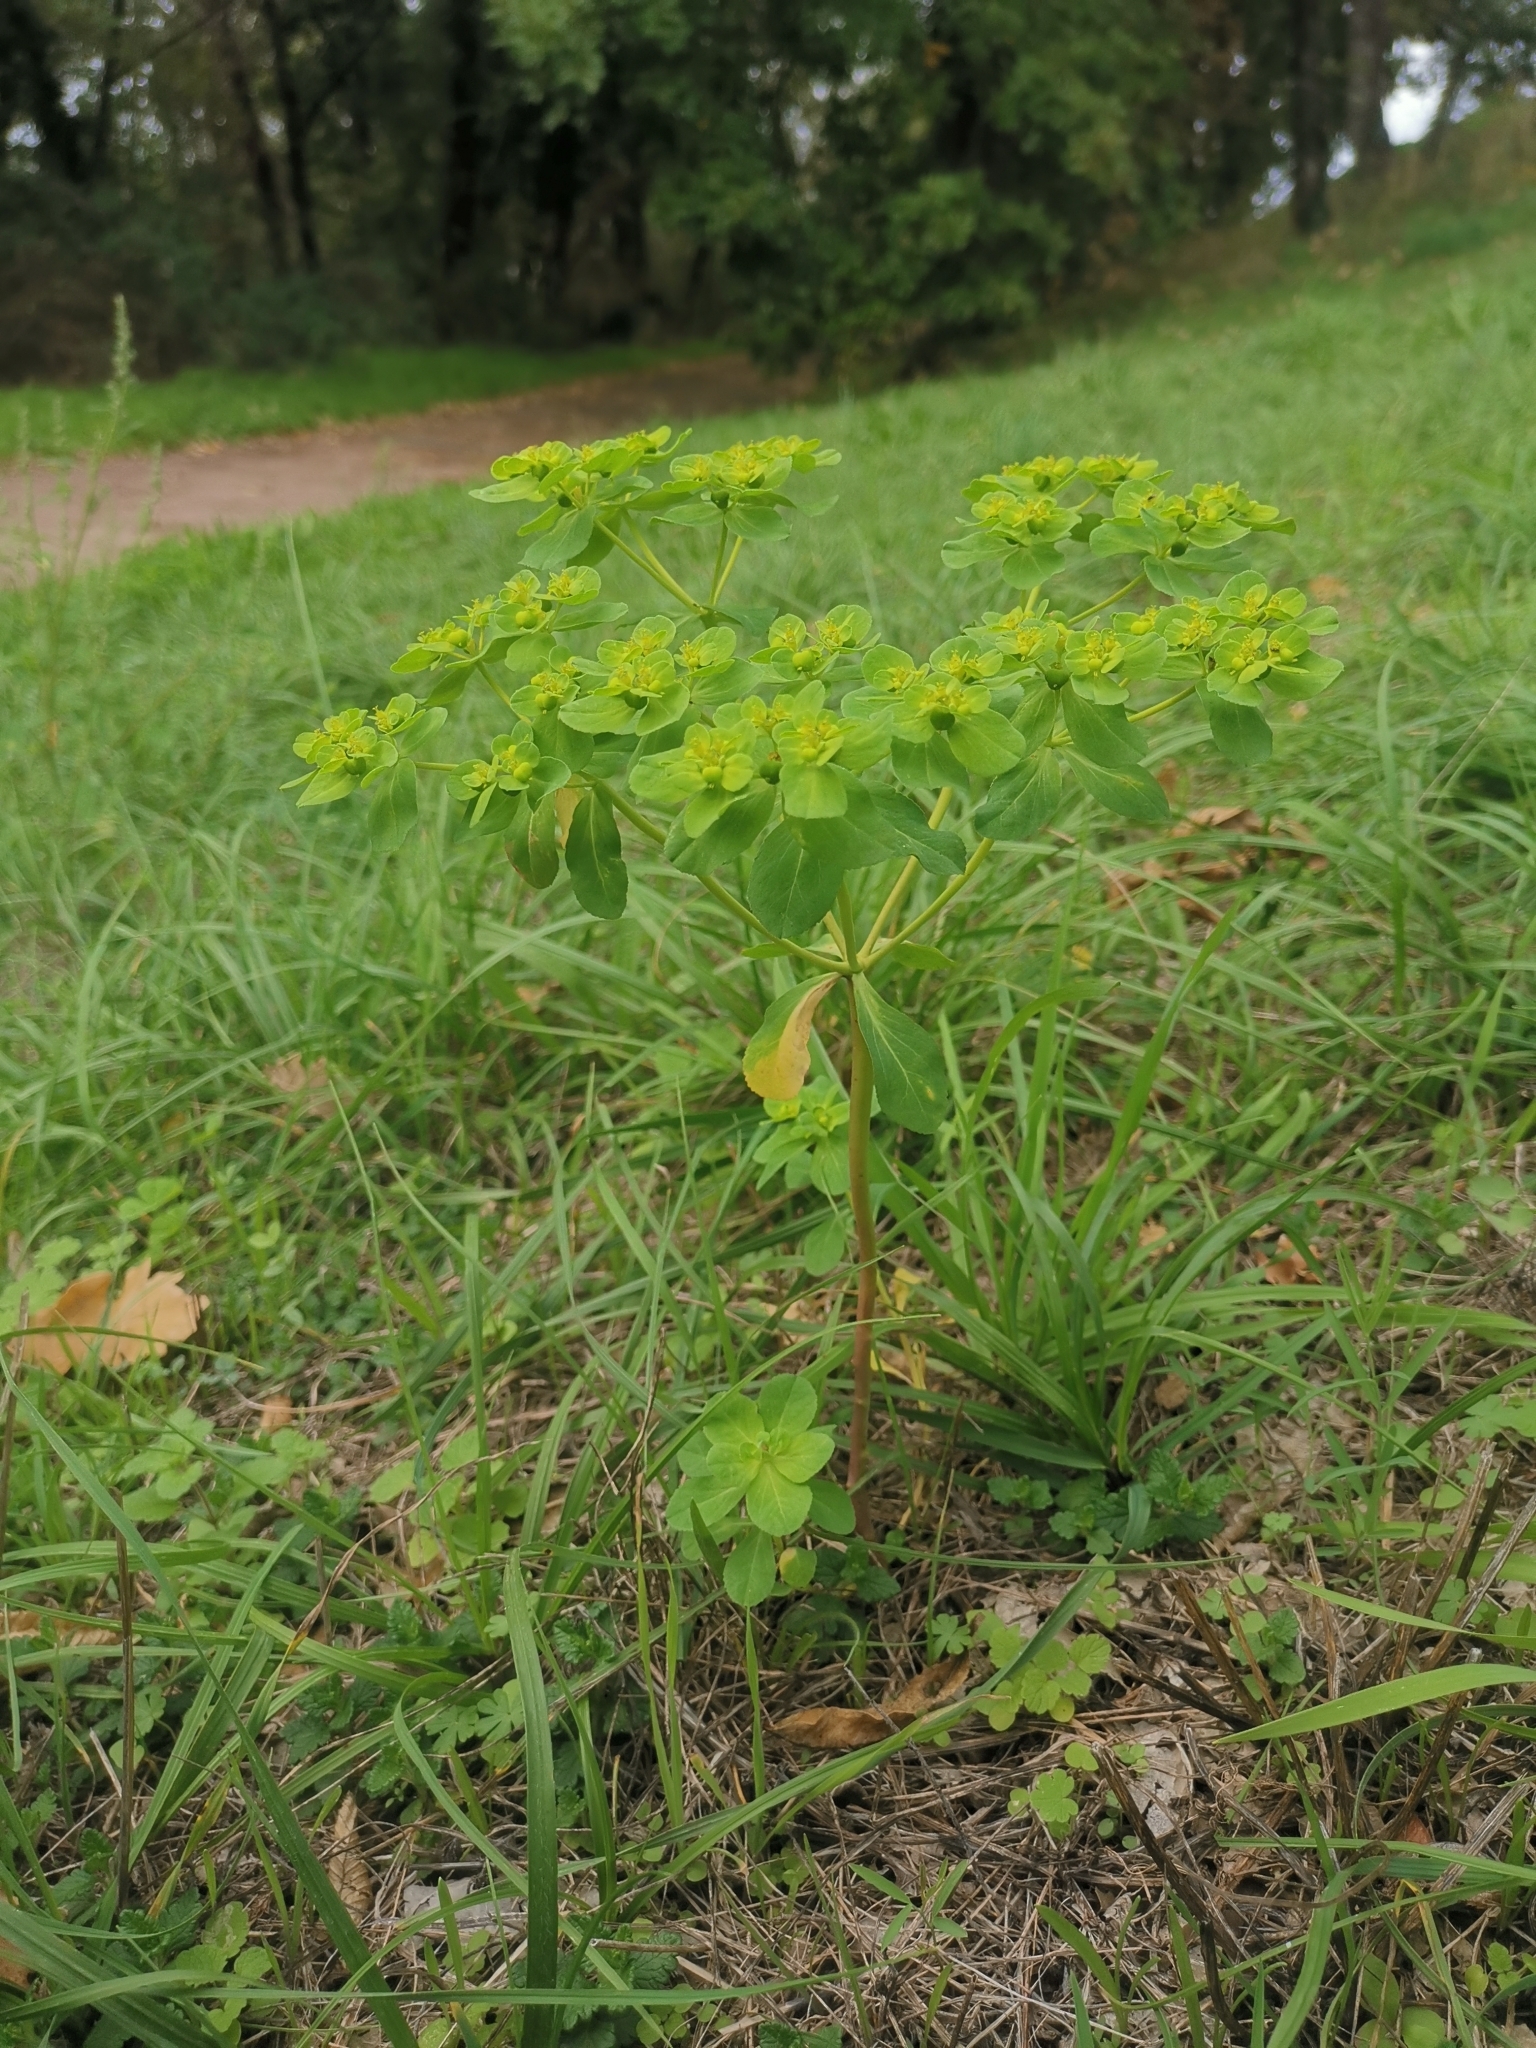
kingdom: Plantae
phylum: Tracheophyta
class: Magnoliopsida
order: Malpighiales
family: Euphorbiaceae
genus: Euphorbia
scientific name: Euphorbia helioscopia
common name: Sun spurge
